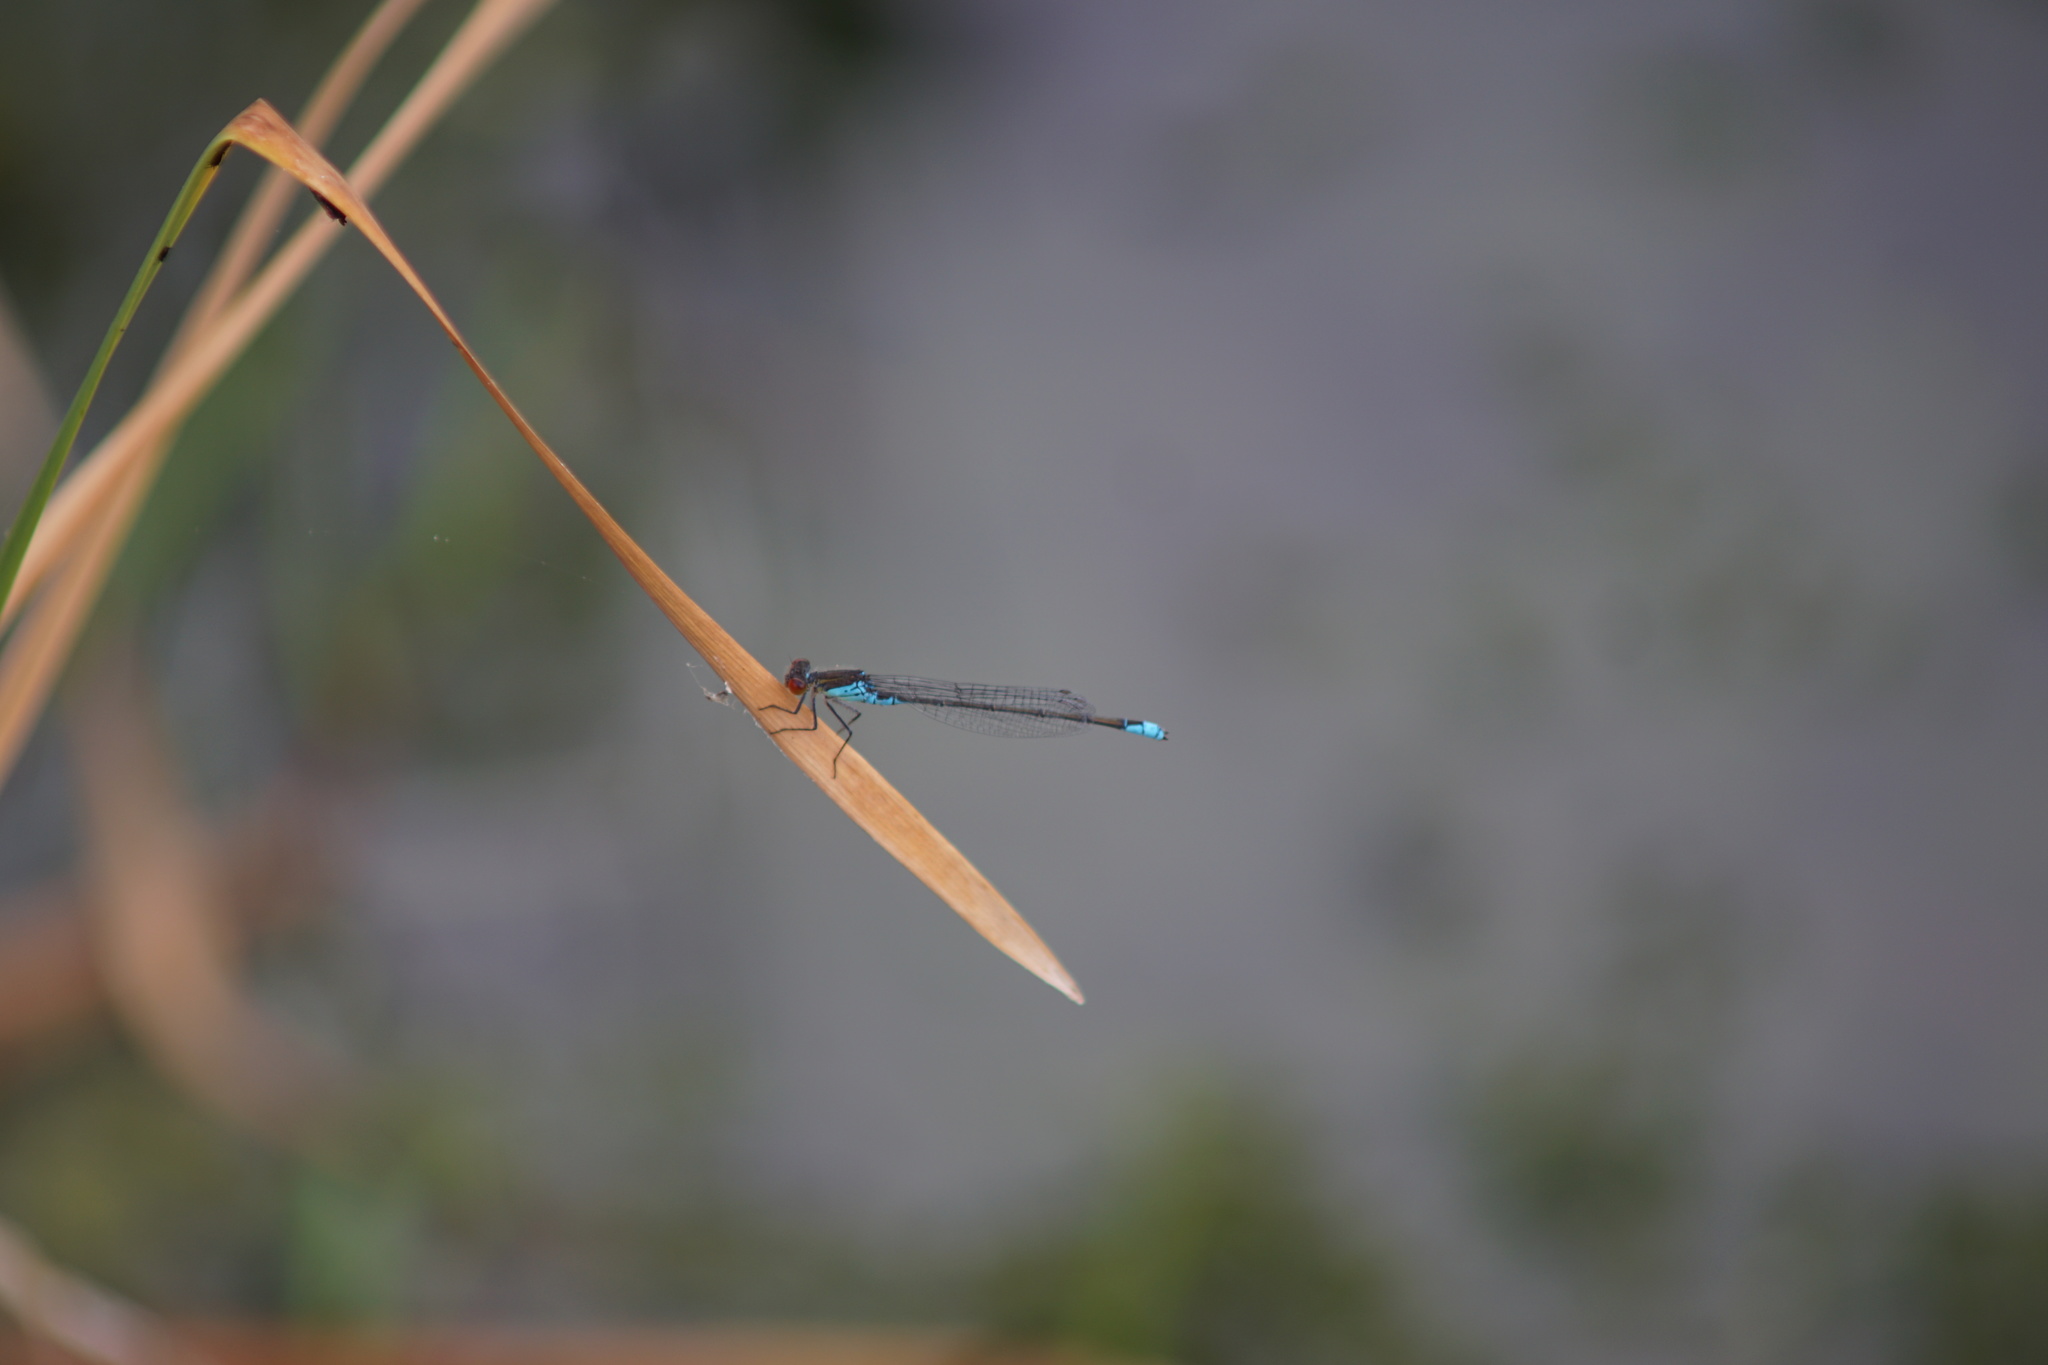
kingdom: Animalia
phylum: Arthropoda
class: Insecta
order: Odonata
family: Coenagrionidae
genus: Erythromma
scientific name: Erythromma viridulum
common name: Small red-eyed damselfly
